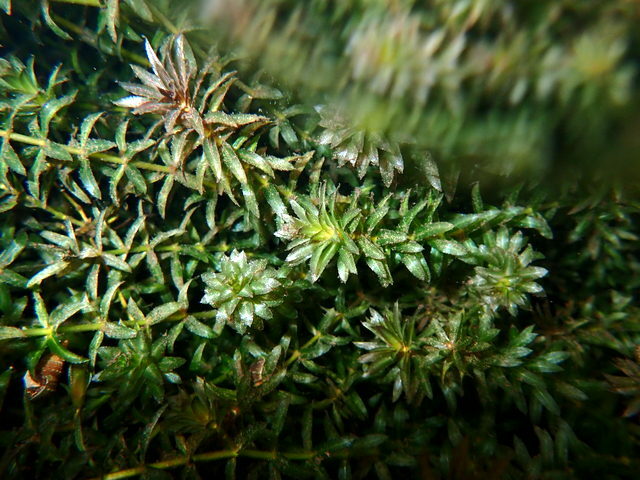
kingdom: Plantae
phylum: Tracheophyta
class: Liliopsida
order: Alismatales
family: Hydrocharitaceae
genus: Hydrilla
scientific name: Hydrilla verticillata
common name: Florida-elodea
